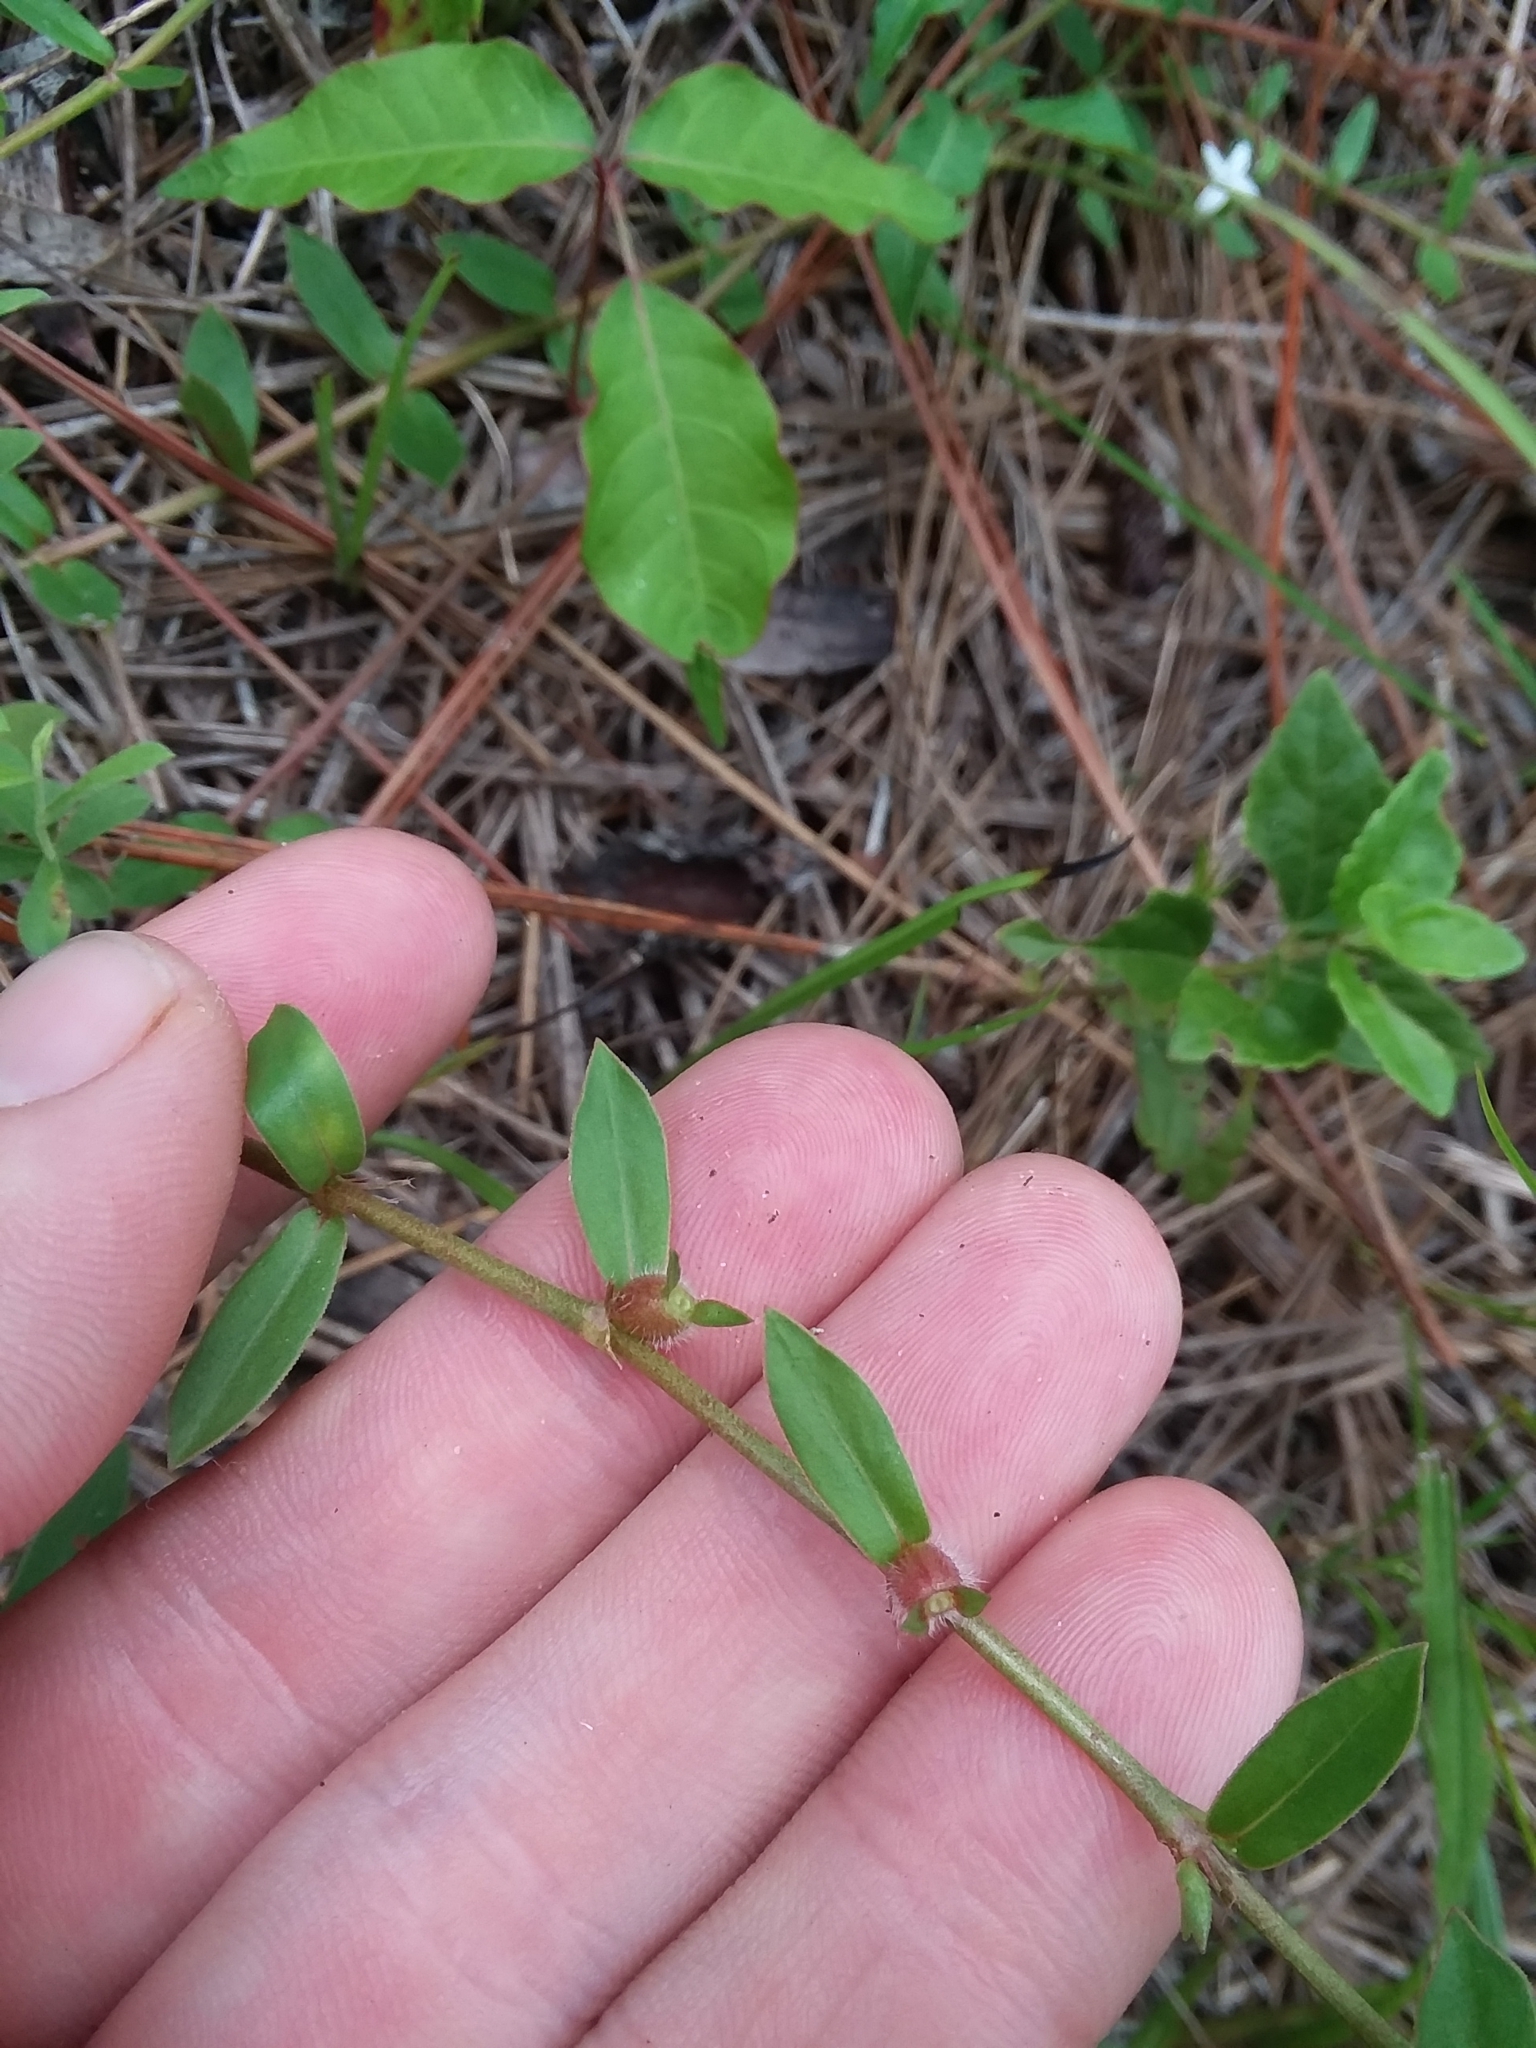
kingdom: Plantae
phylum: Tracheophyta
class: Magnoliopsida
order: Gentianales
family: Rubiaceae
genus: Diodia
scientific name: Diodia virginiana
